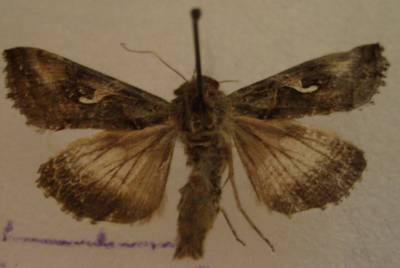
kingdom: Animalia
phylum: Arthropoda
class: Insecta
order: Lepidoptera
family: Noctuidae
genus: Autographa
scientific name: Autographa gamma
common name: Silver y
